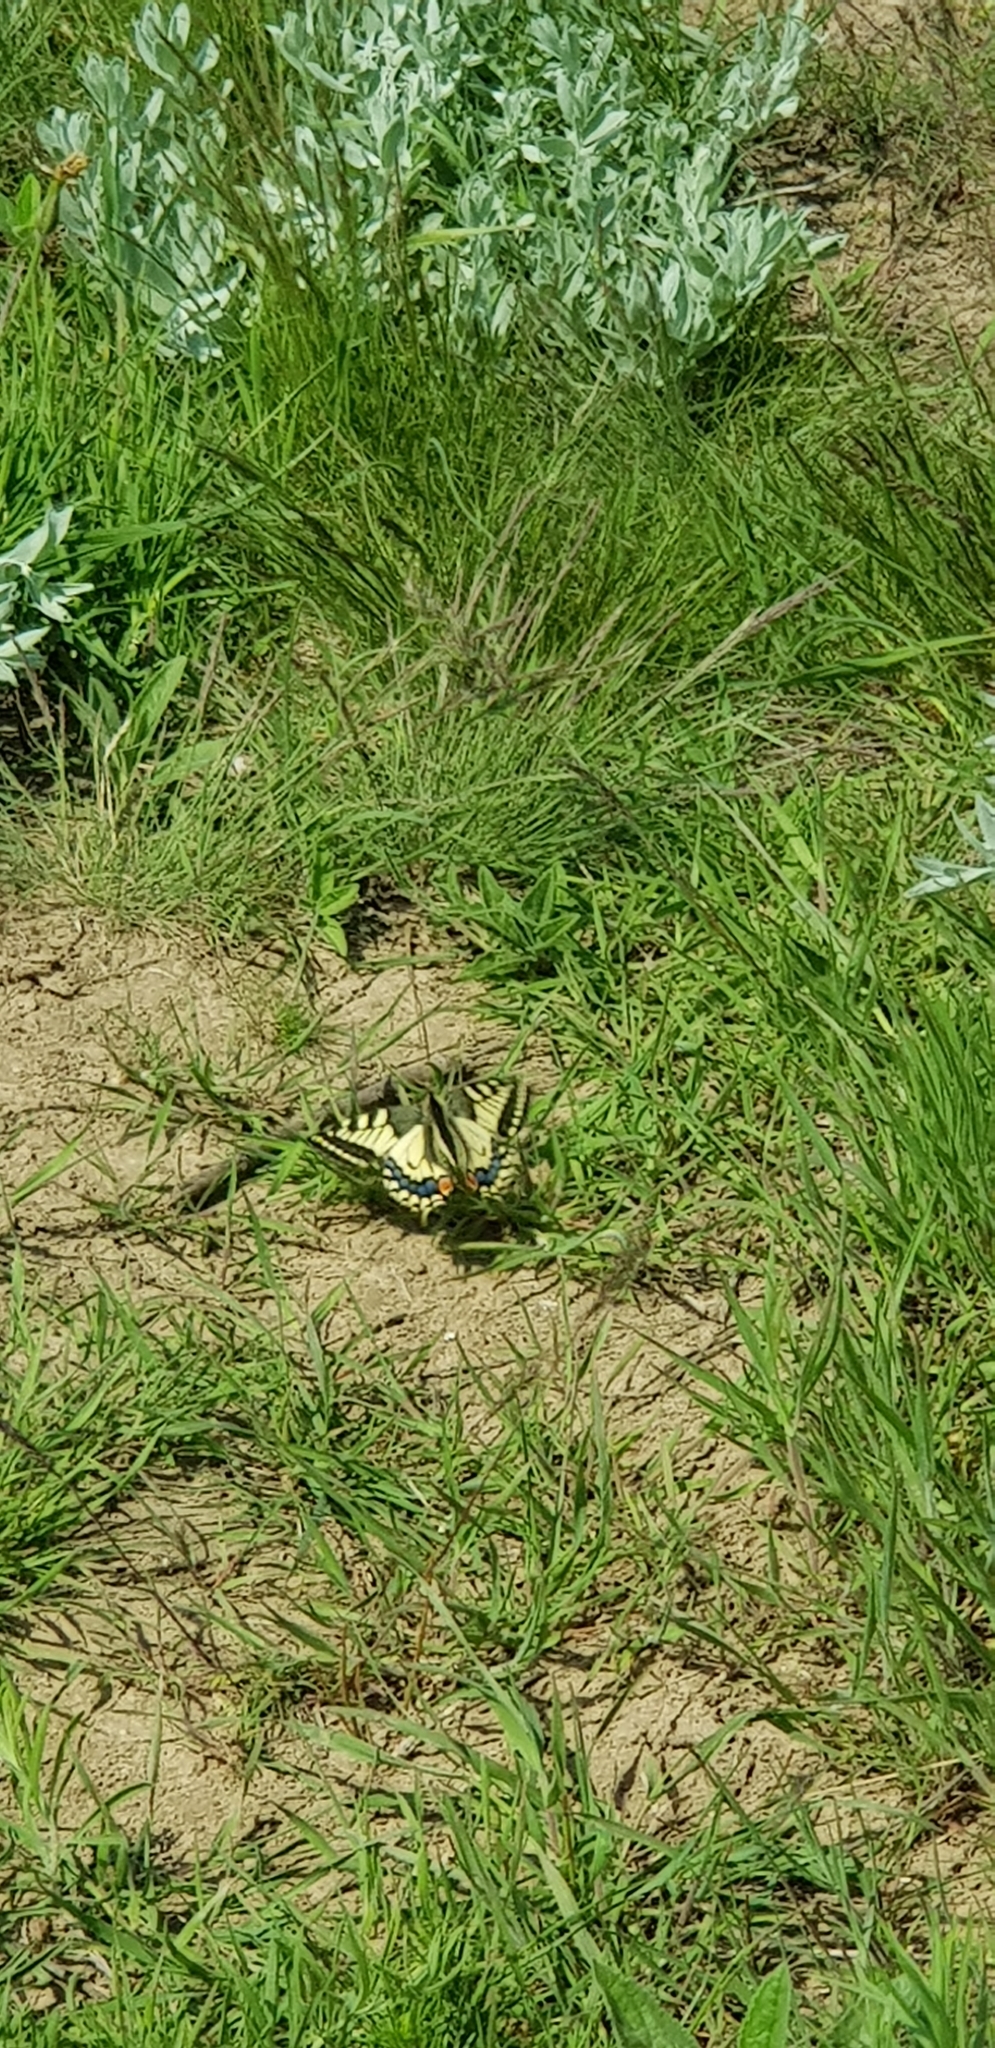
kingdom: Animalia
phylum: Arthropoda
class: Insecta
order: Lepidoptera
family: Papilionidae
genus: Papilio
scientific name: Papilio machaon
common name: Swallowtail
